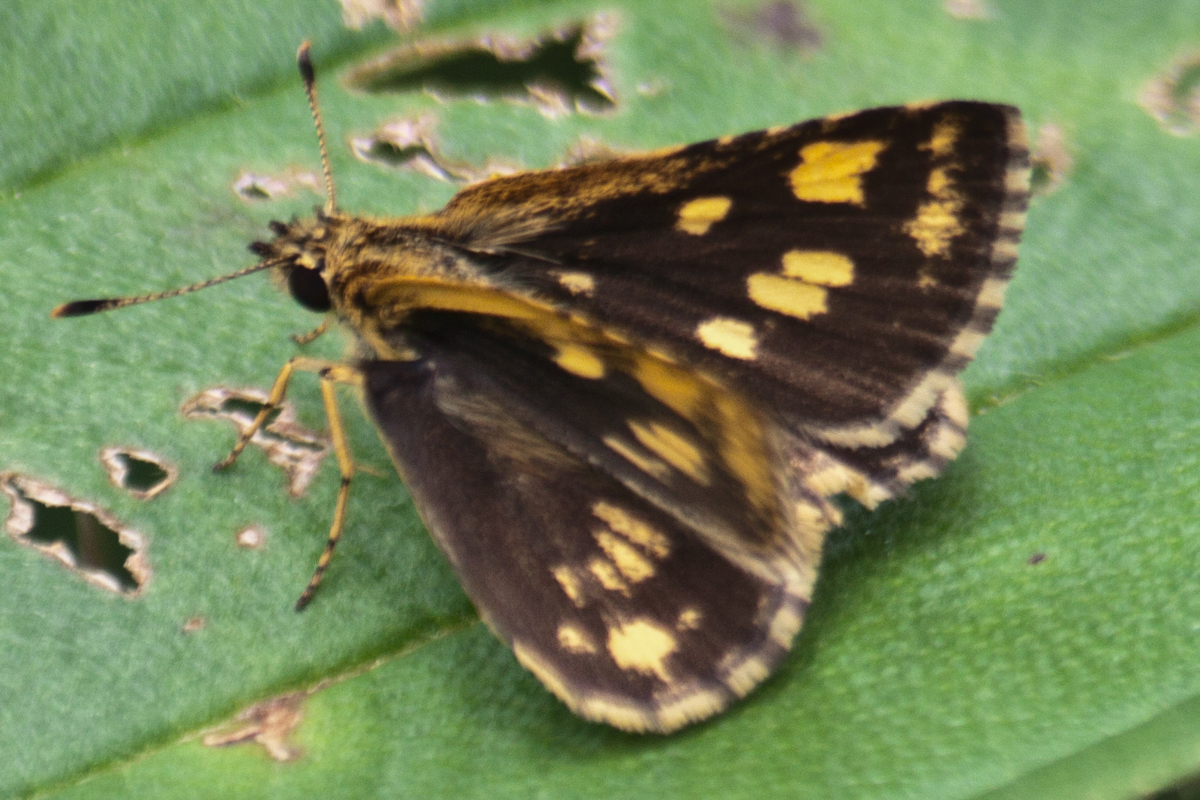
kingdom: Animalia
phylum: Arthropoda
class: Insecta
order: Lepidoptera
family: Hesperiidae
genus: Ampittia
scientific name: Ampittia dioscorides
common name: Common bush hopper
